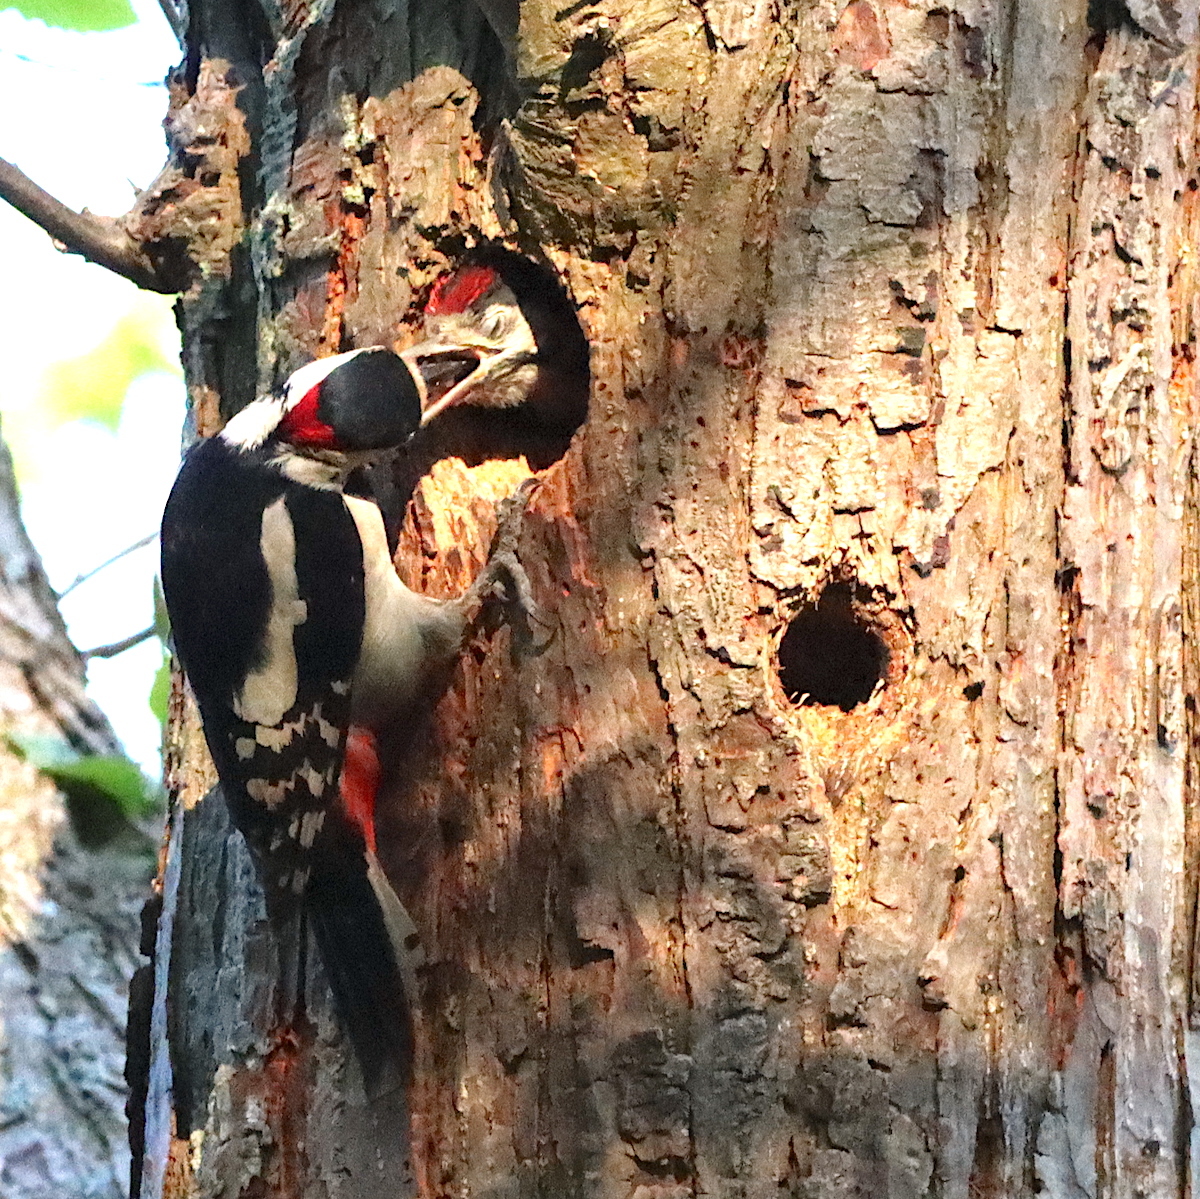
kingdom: Animalia
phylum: Chordata
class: Aves
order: Piciformes
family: Picidae
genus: Dendrocopos
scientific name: Dendrocopos major
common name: Great spotted woodpecker
